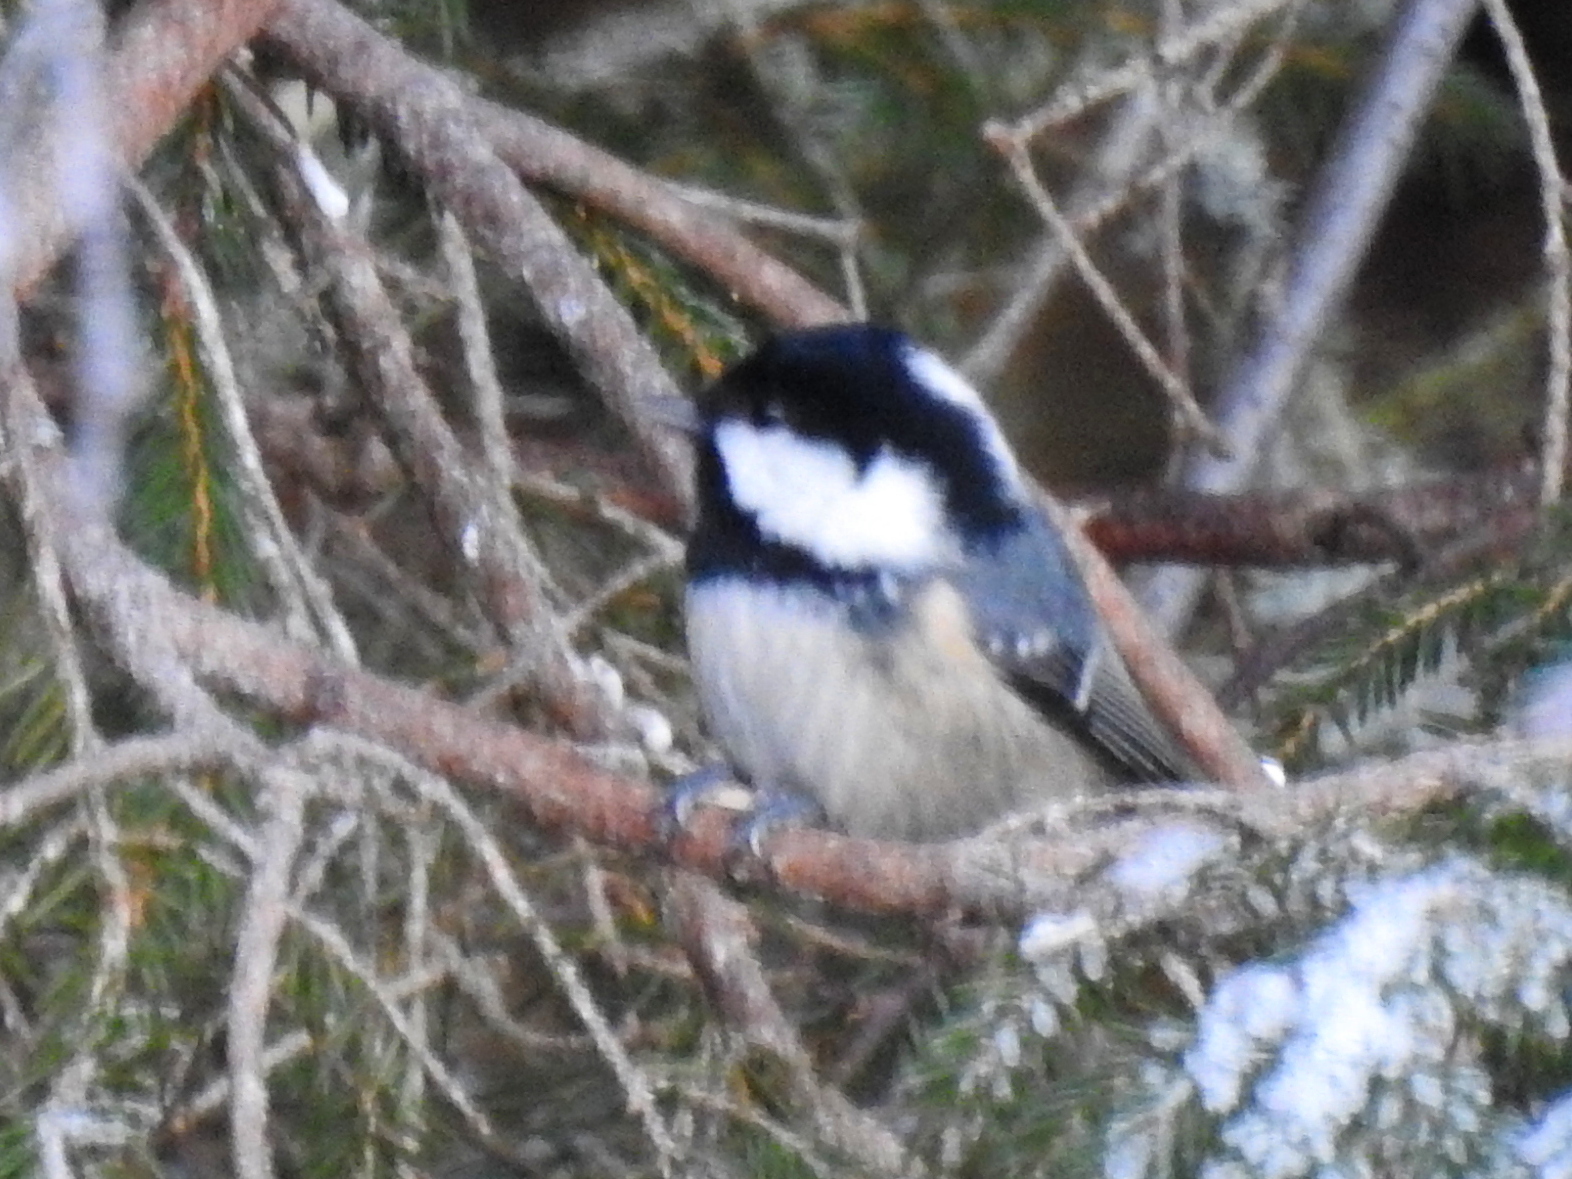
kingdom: Animalia
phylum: Chordata
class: Aves
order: Passeriformes
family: Paridae
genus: Periparus
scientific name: Periparus ater
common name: Coal tit
